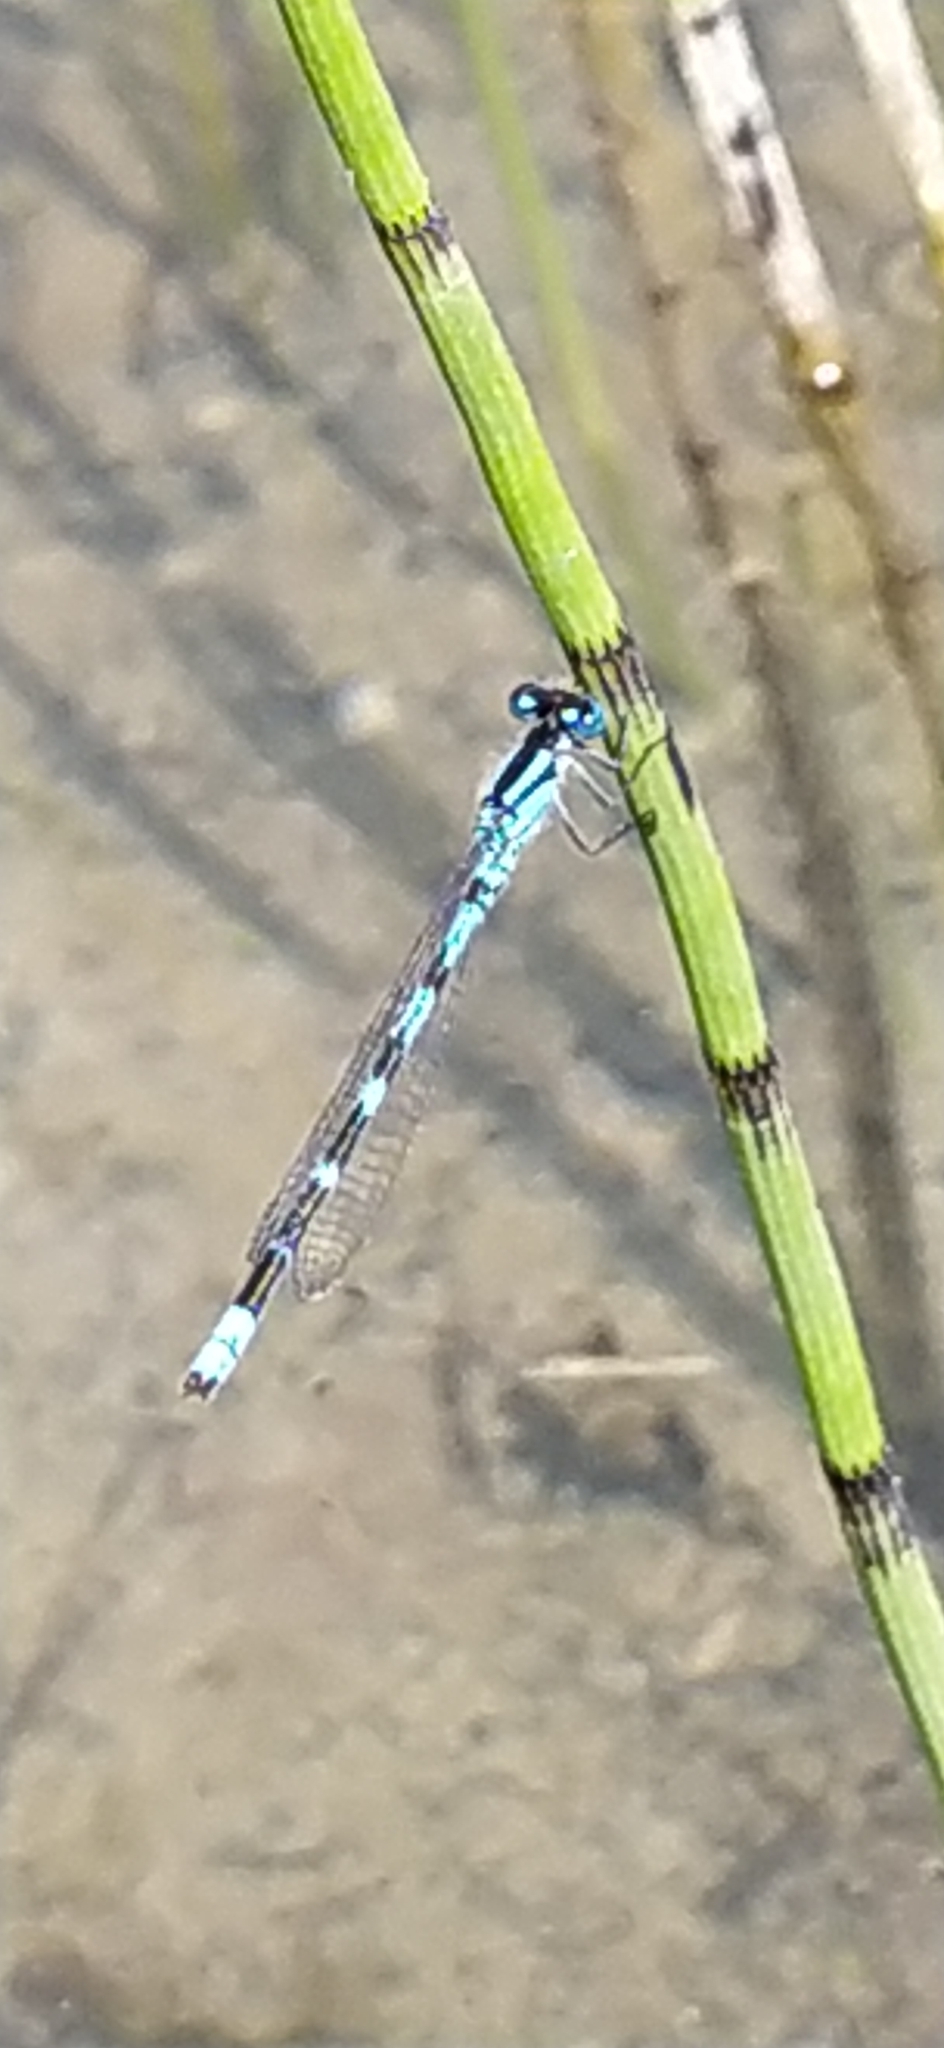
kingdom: Animalia
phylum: Arthropoda
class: Insecta
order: Odonata
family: Coenagrionidae
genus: Enallagma
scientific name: Enallagma cyathigerum
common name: Common blue damselfly
